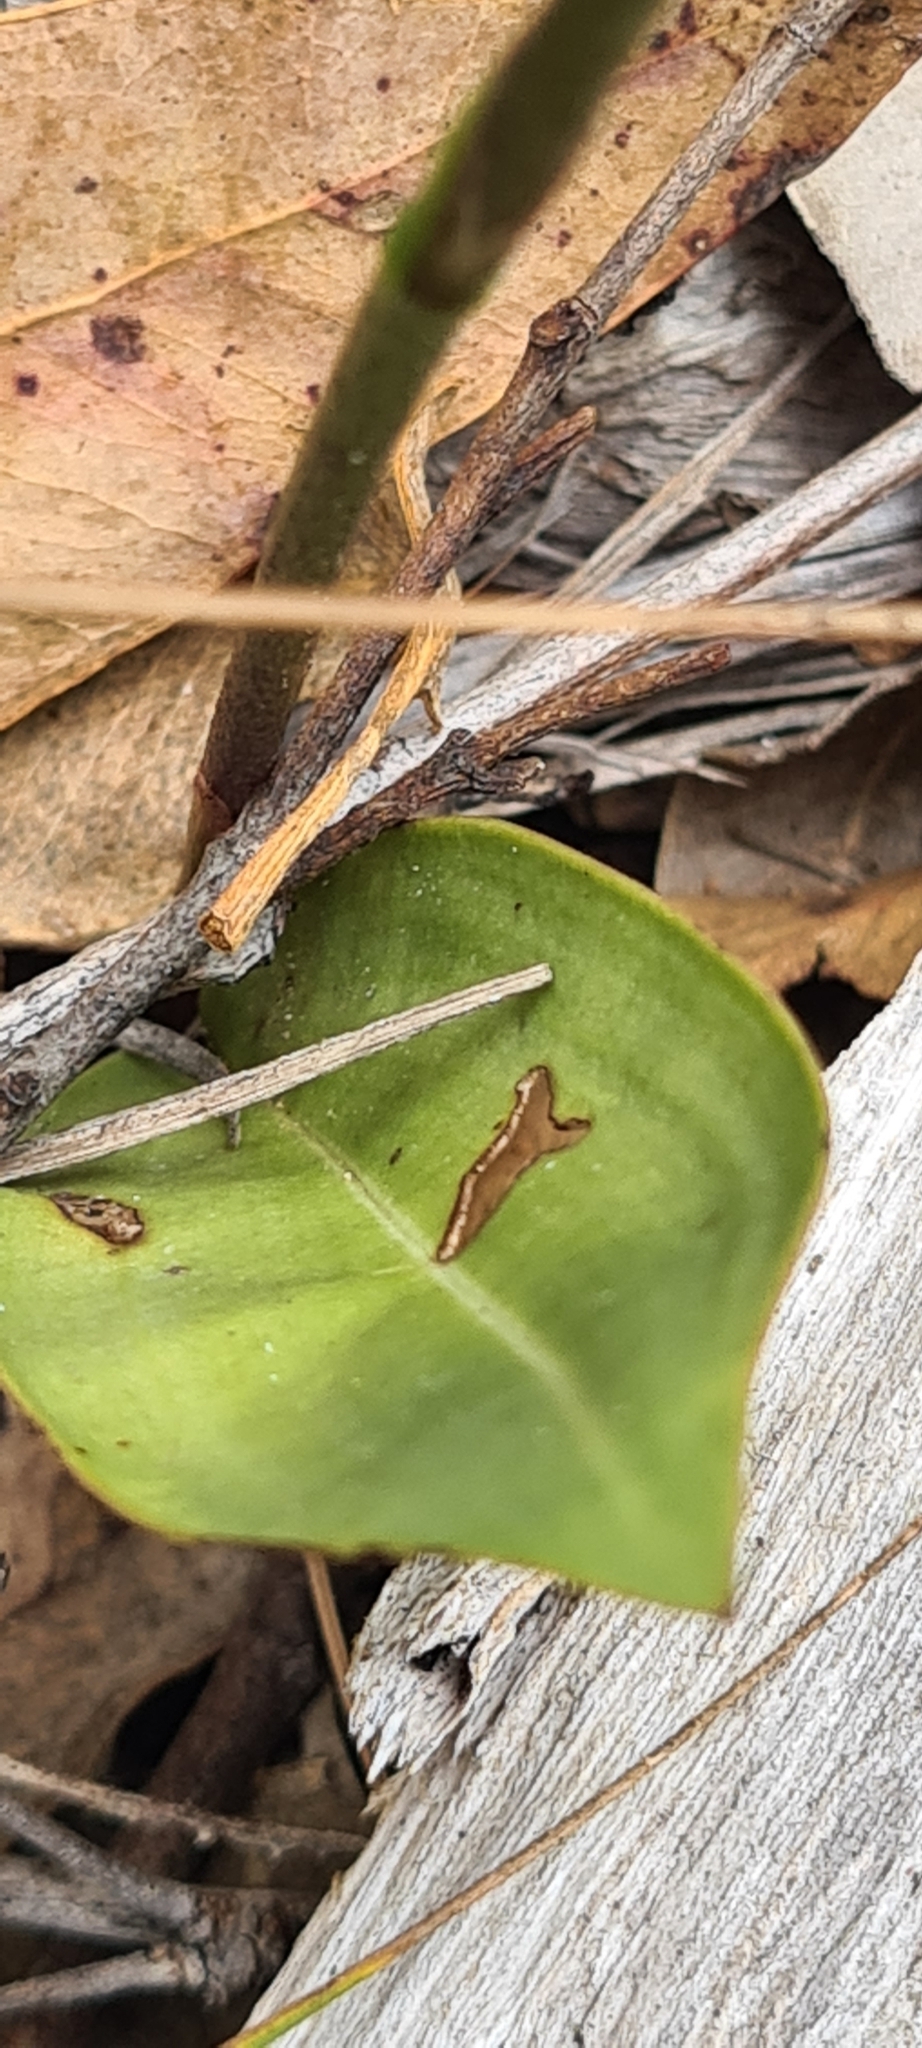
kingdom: Plantae
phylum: Tracheophyta
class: Liliopsida
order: Asparagales
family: Orchidaceae
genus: Cryptostylis
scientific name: Cryptostylis erecta
